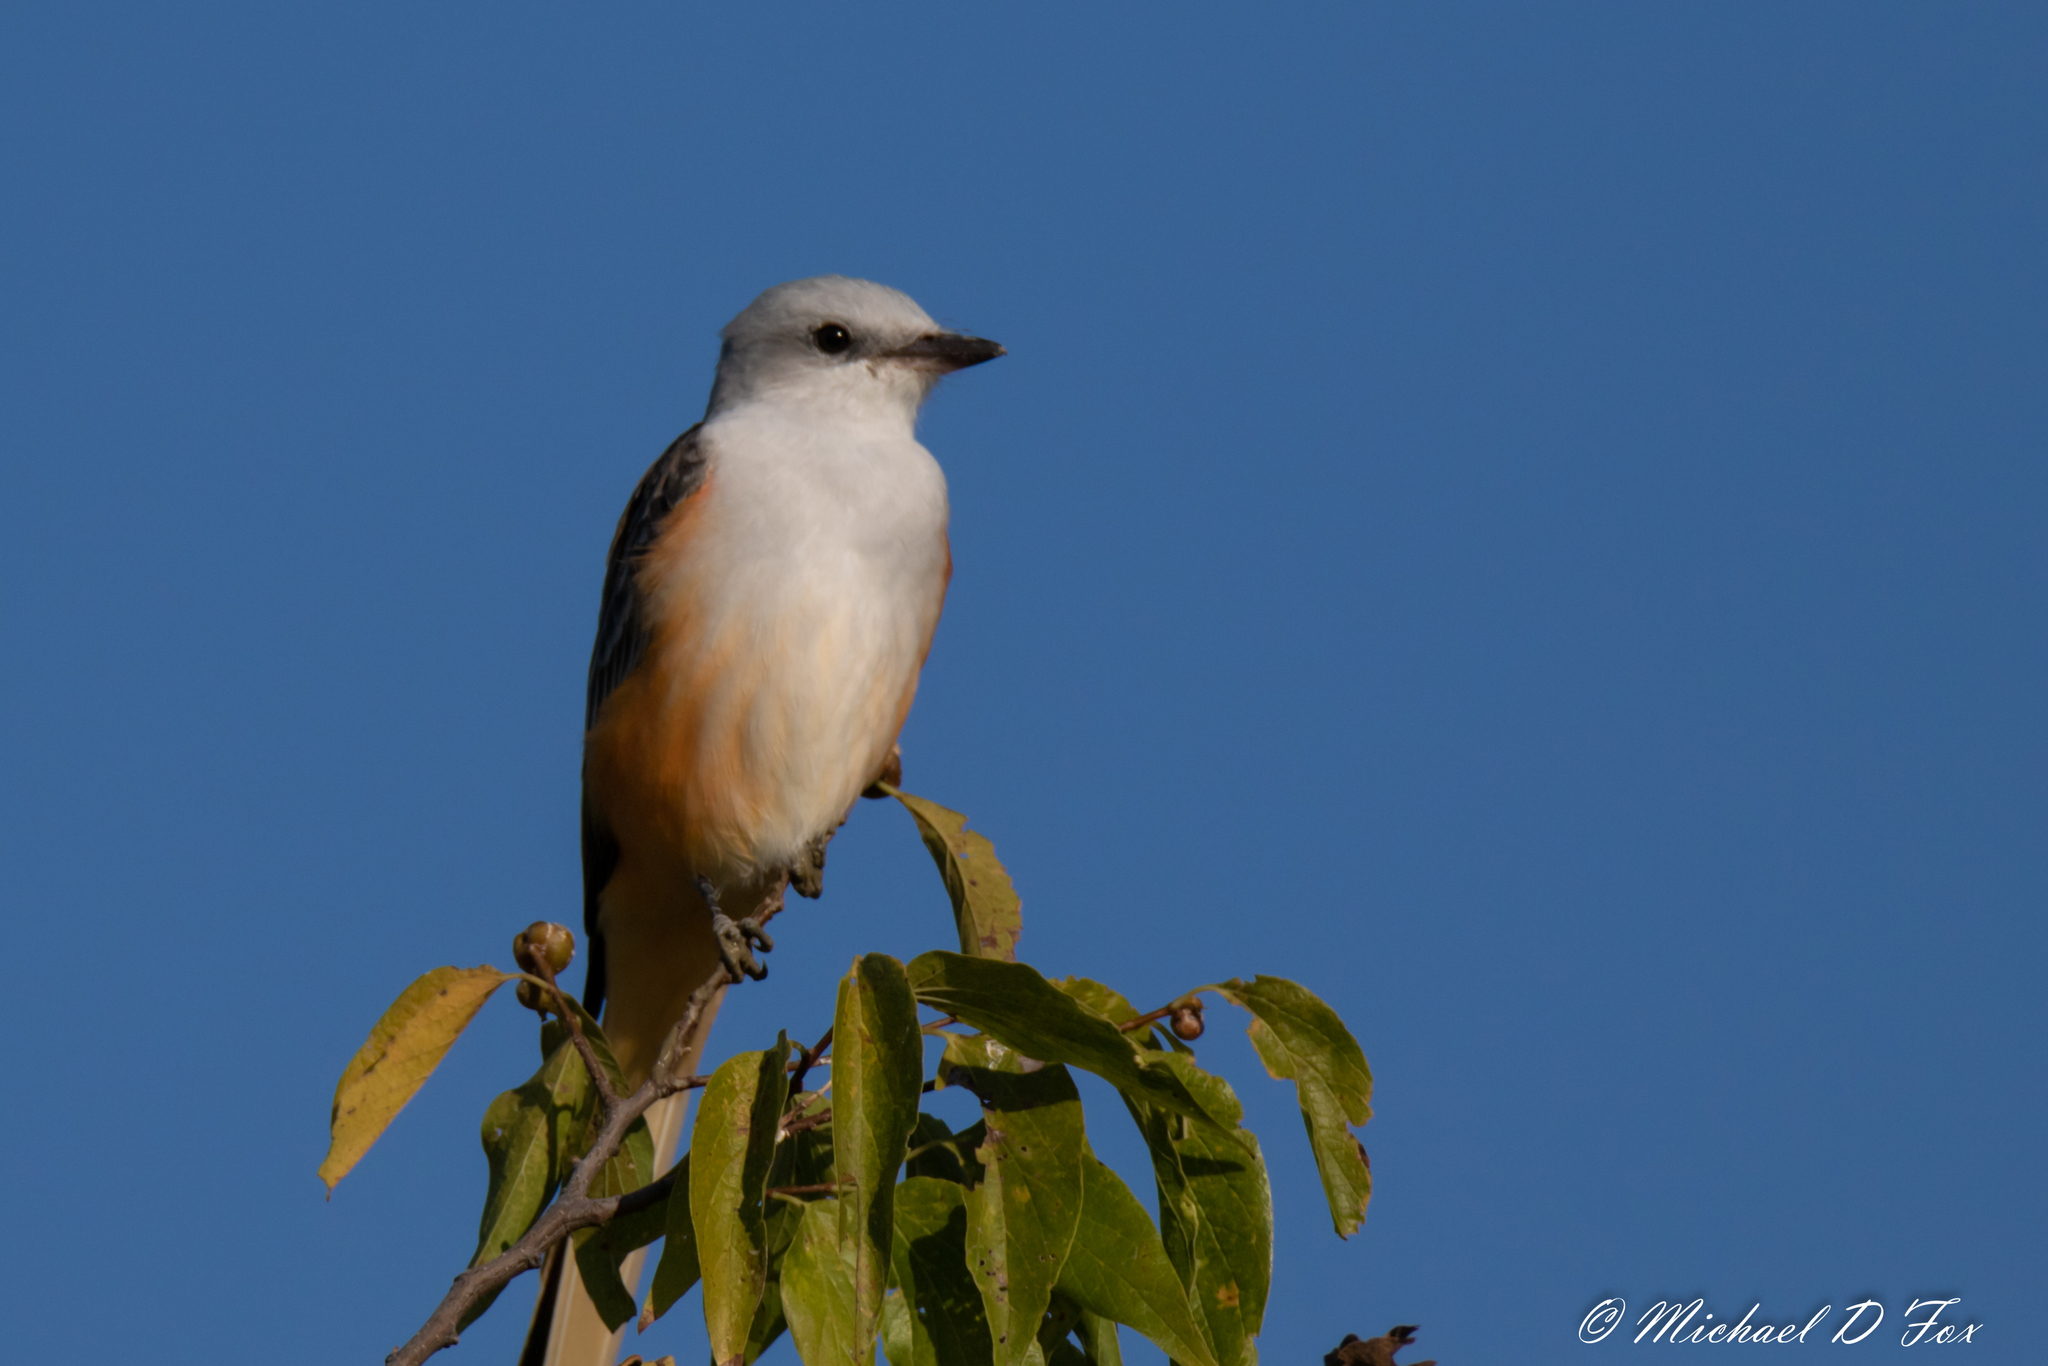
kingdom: Animalia
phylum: Chordata
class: Aves
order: Passeriformes
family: Tyrannidae
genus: Tyrannus
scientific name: Tyrannus forficatus
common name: Scissor-tailed flycatcher
